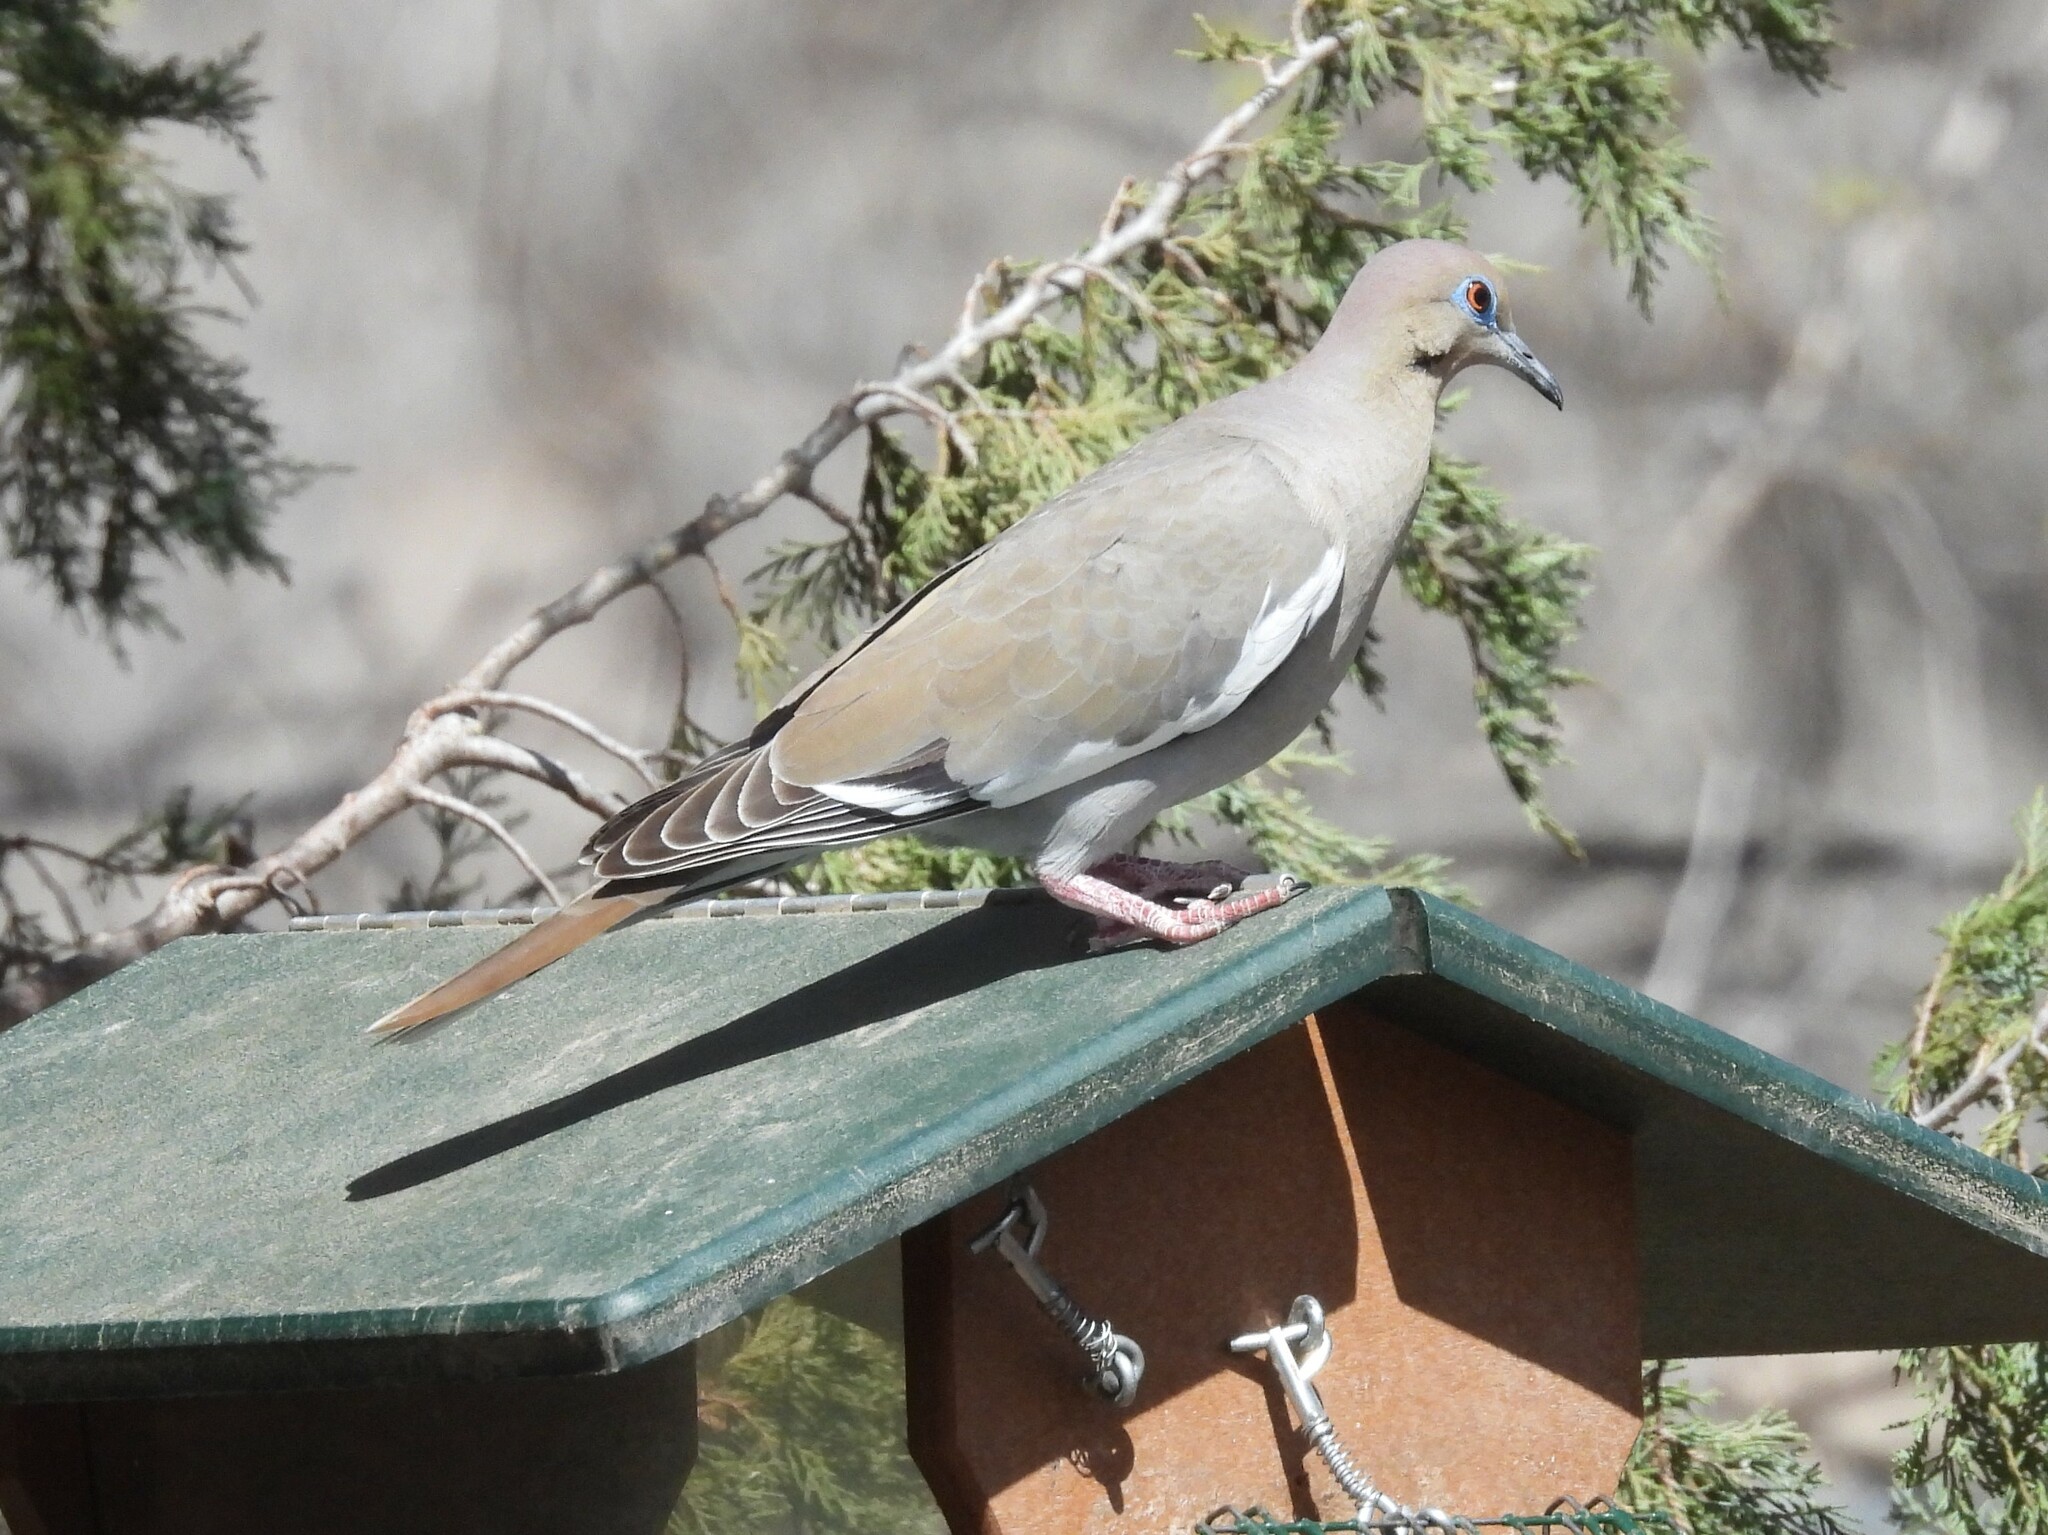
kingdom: Animalia
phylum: Chordata
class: Aves
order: Columbiformes
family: Columbidae
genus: Zenaida
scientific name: Zenaida asiatica
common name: White-winged dove
